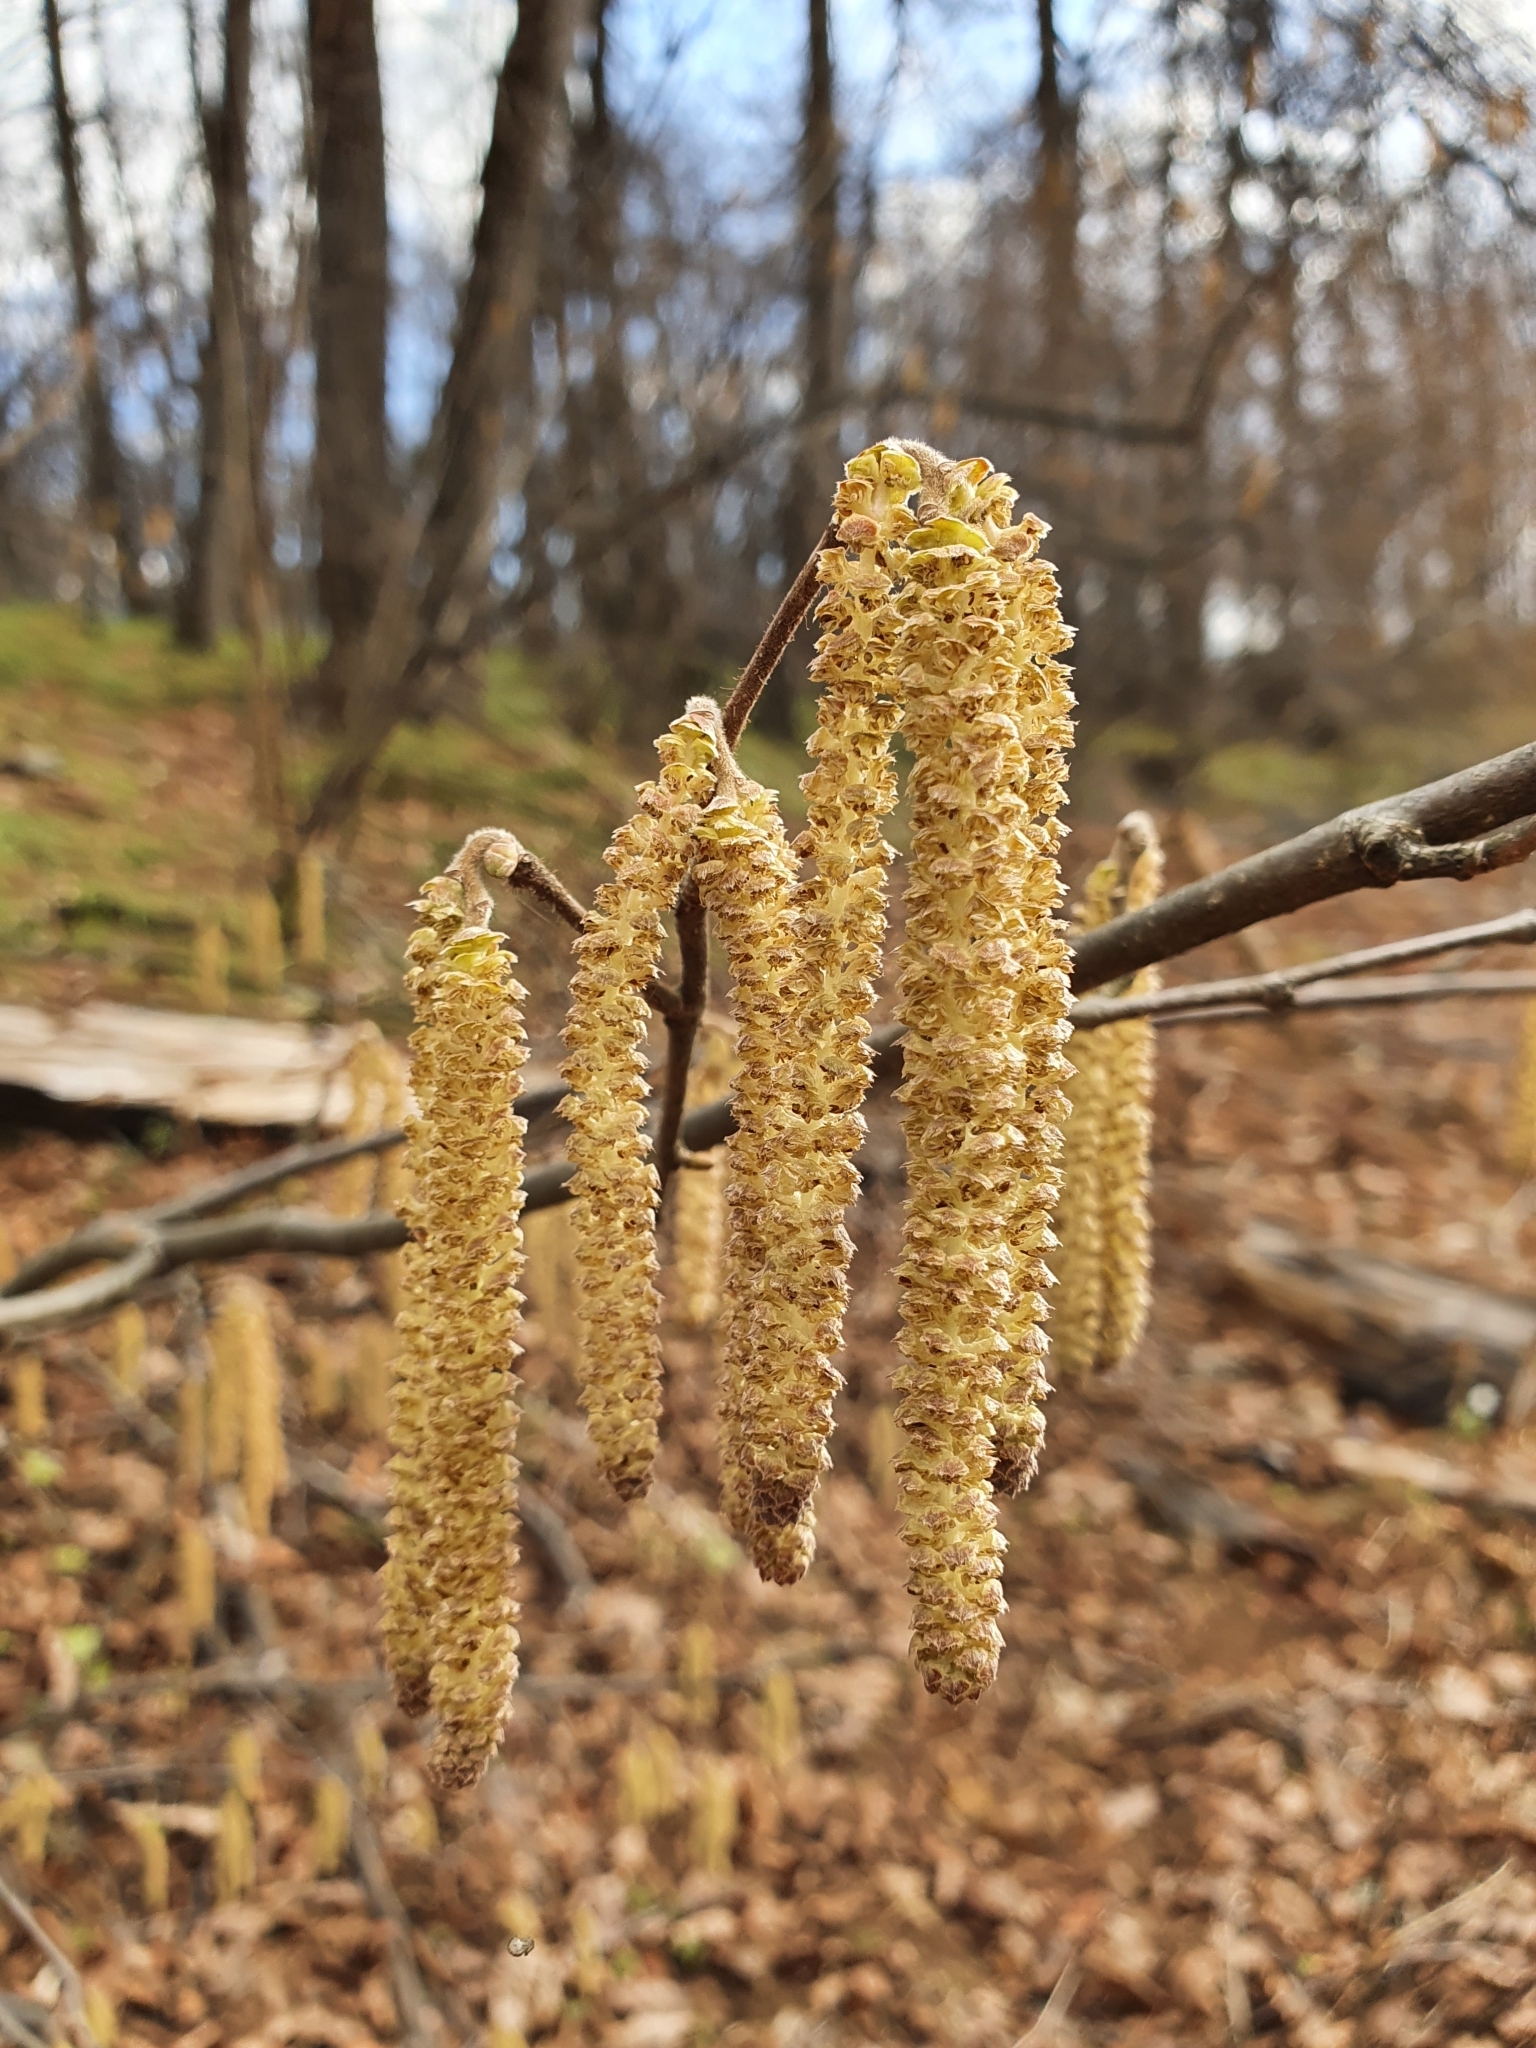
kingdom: Plantae
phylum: Tracheophyta
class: Magnoliopsida
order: Fagales
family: Betulaceae
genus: Corylus
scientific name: Corylus avellana
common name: European hazel
